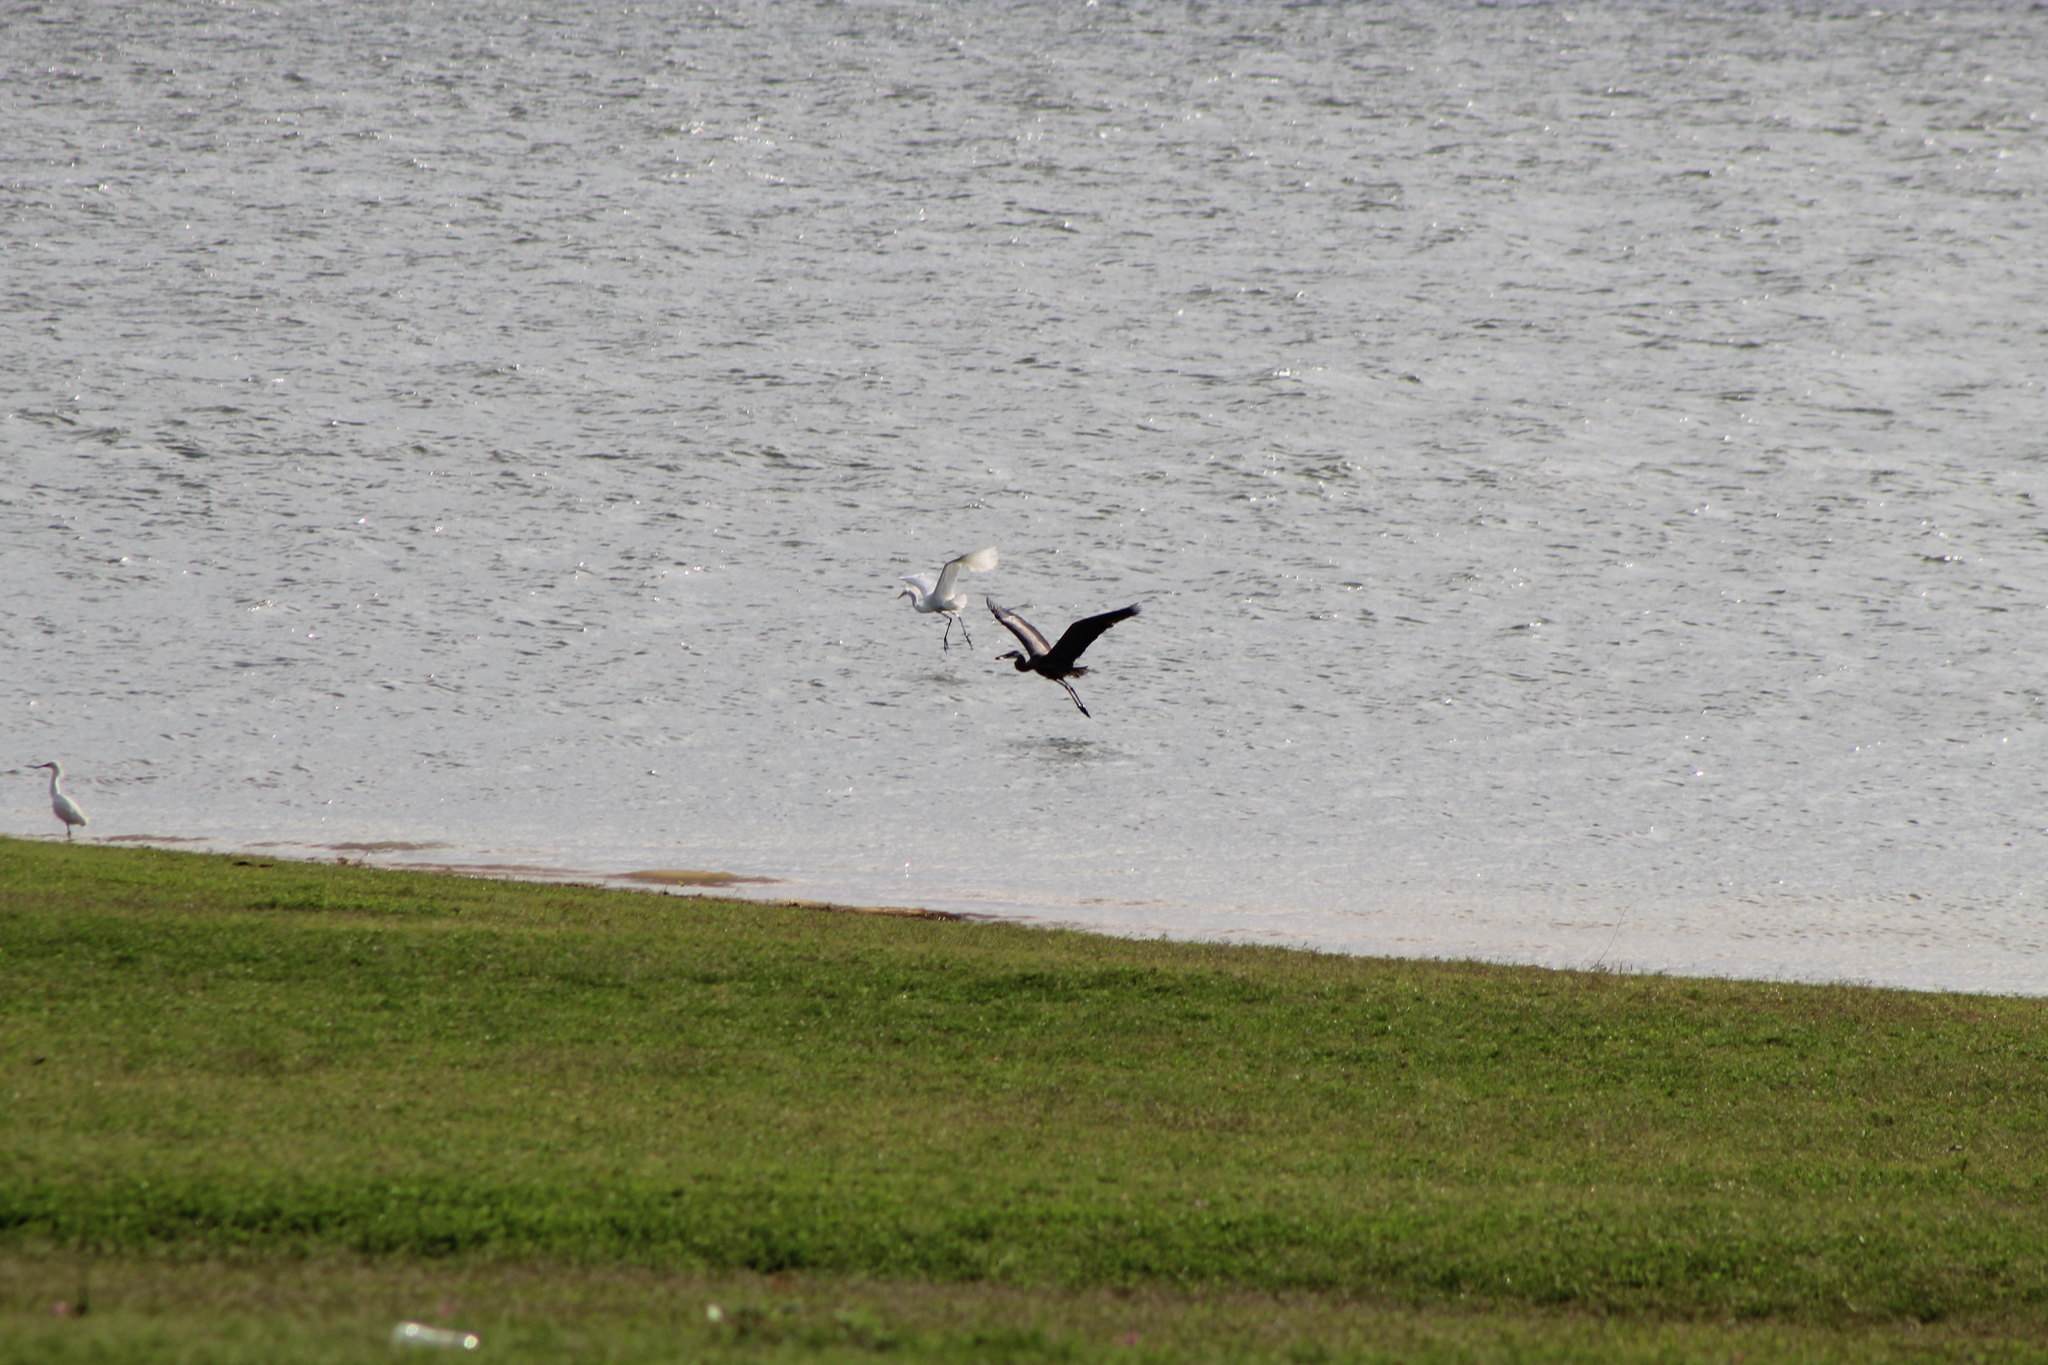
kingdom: Animalia
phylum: Chordata
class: Aves
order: Pelecaniformes
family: Ardeidae
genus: Ardea
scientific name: Ardea herodias
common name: Great blue heron
